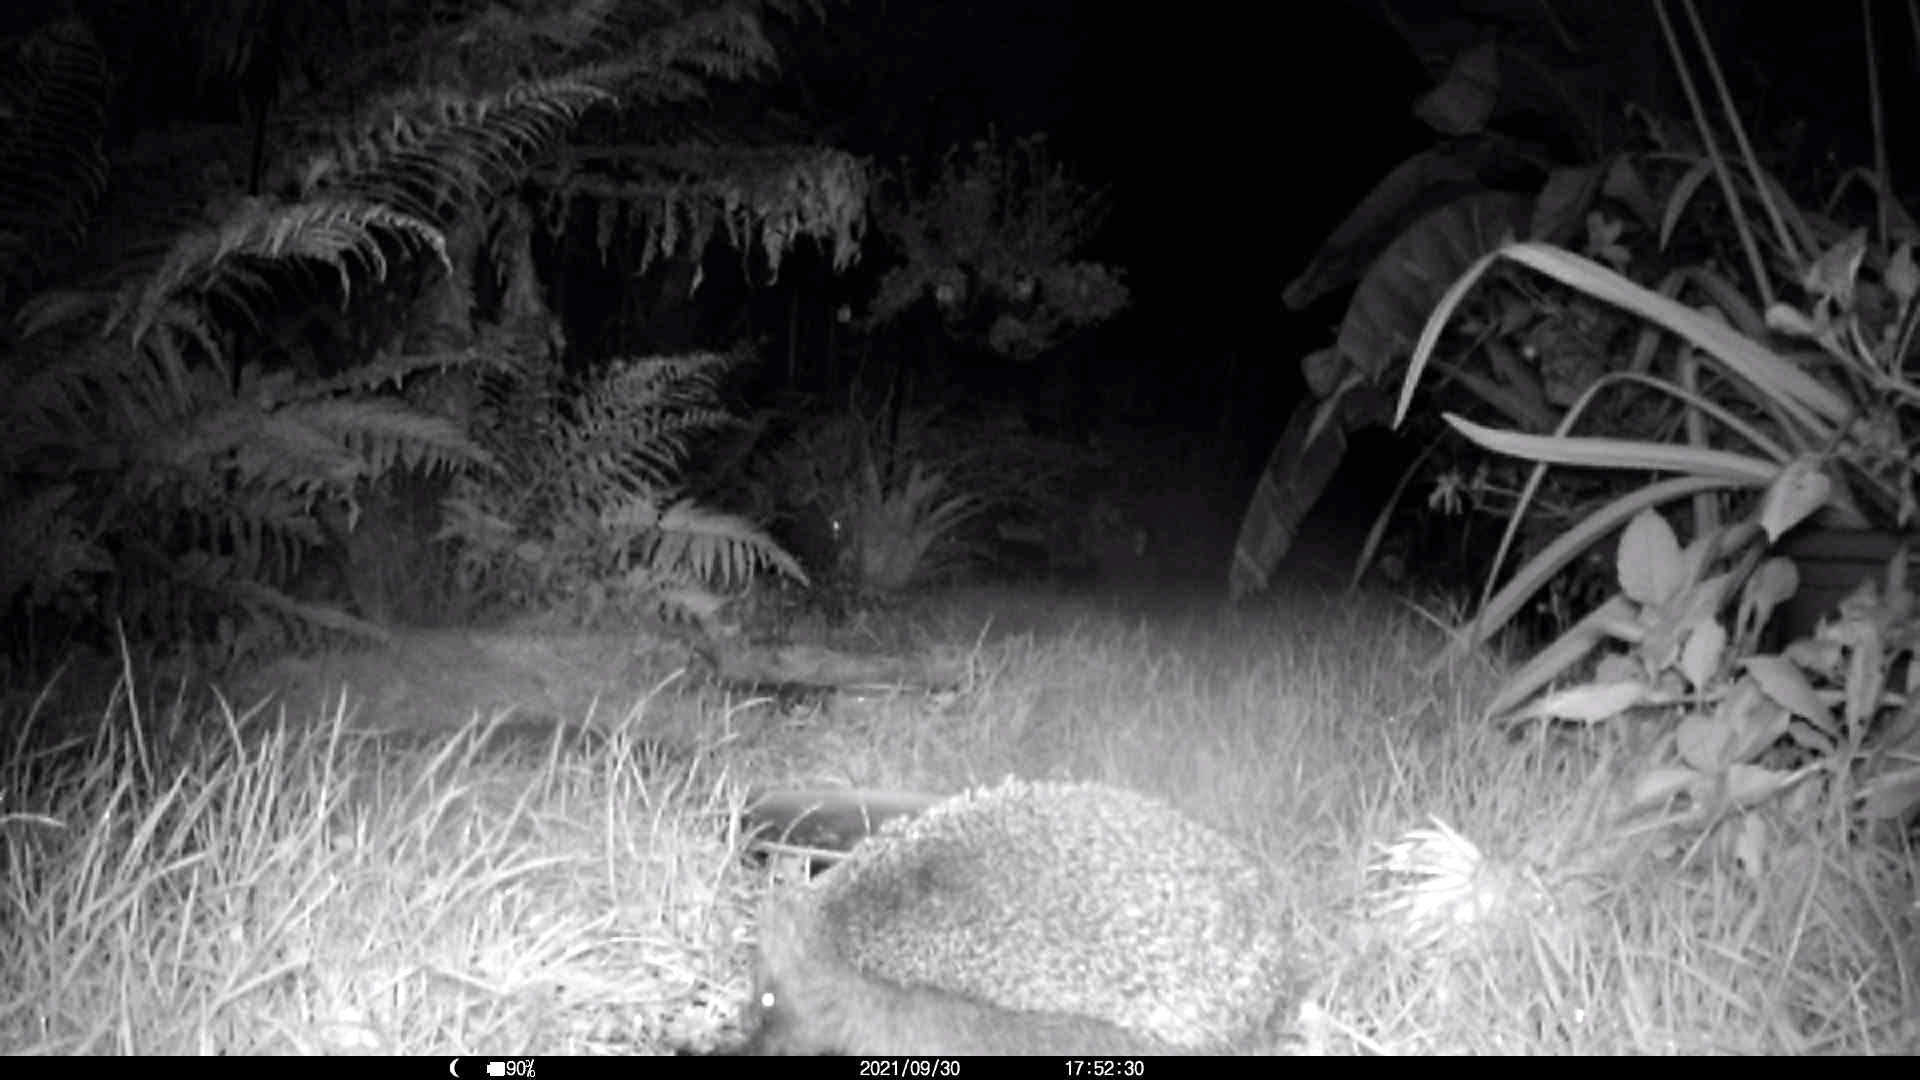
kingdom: Animalia
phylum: Chordata
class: Mammalia
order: Erinaceomorpha
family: Erinaceidae
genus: Erinaceus
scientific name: Erinaceus europaeus
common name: West european hedgehog
